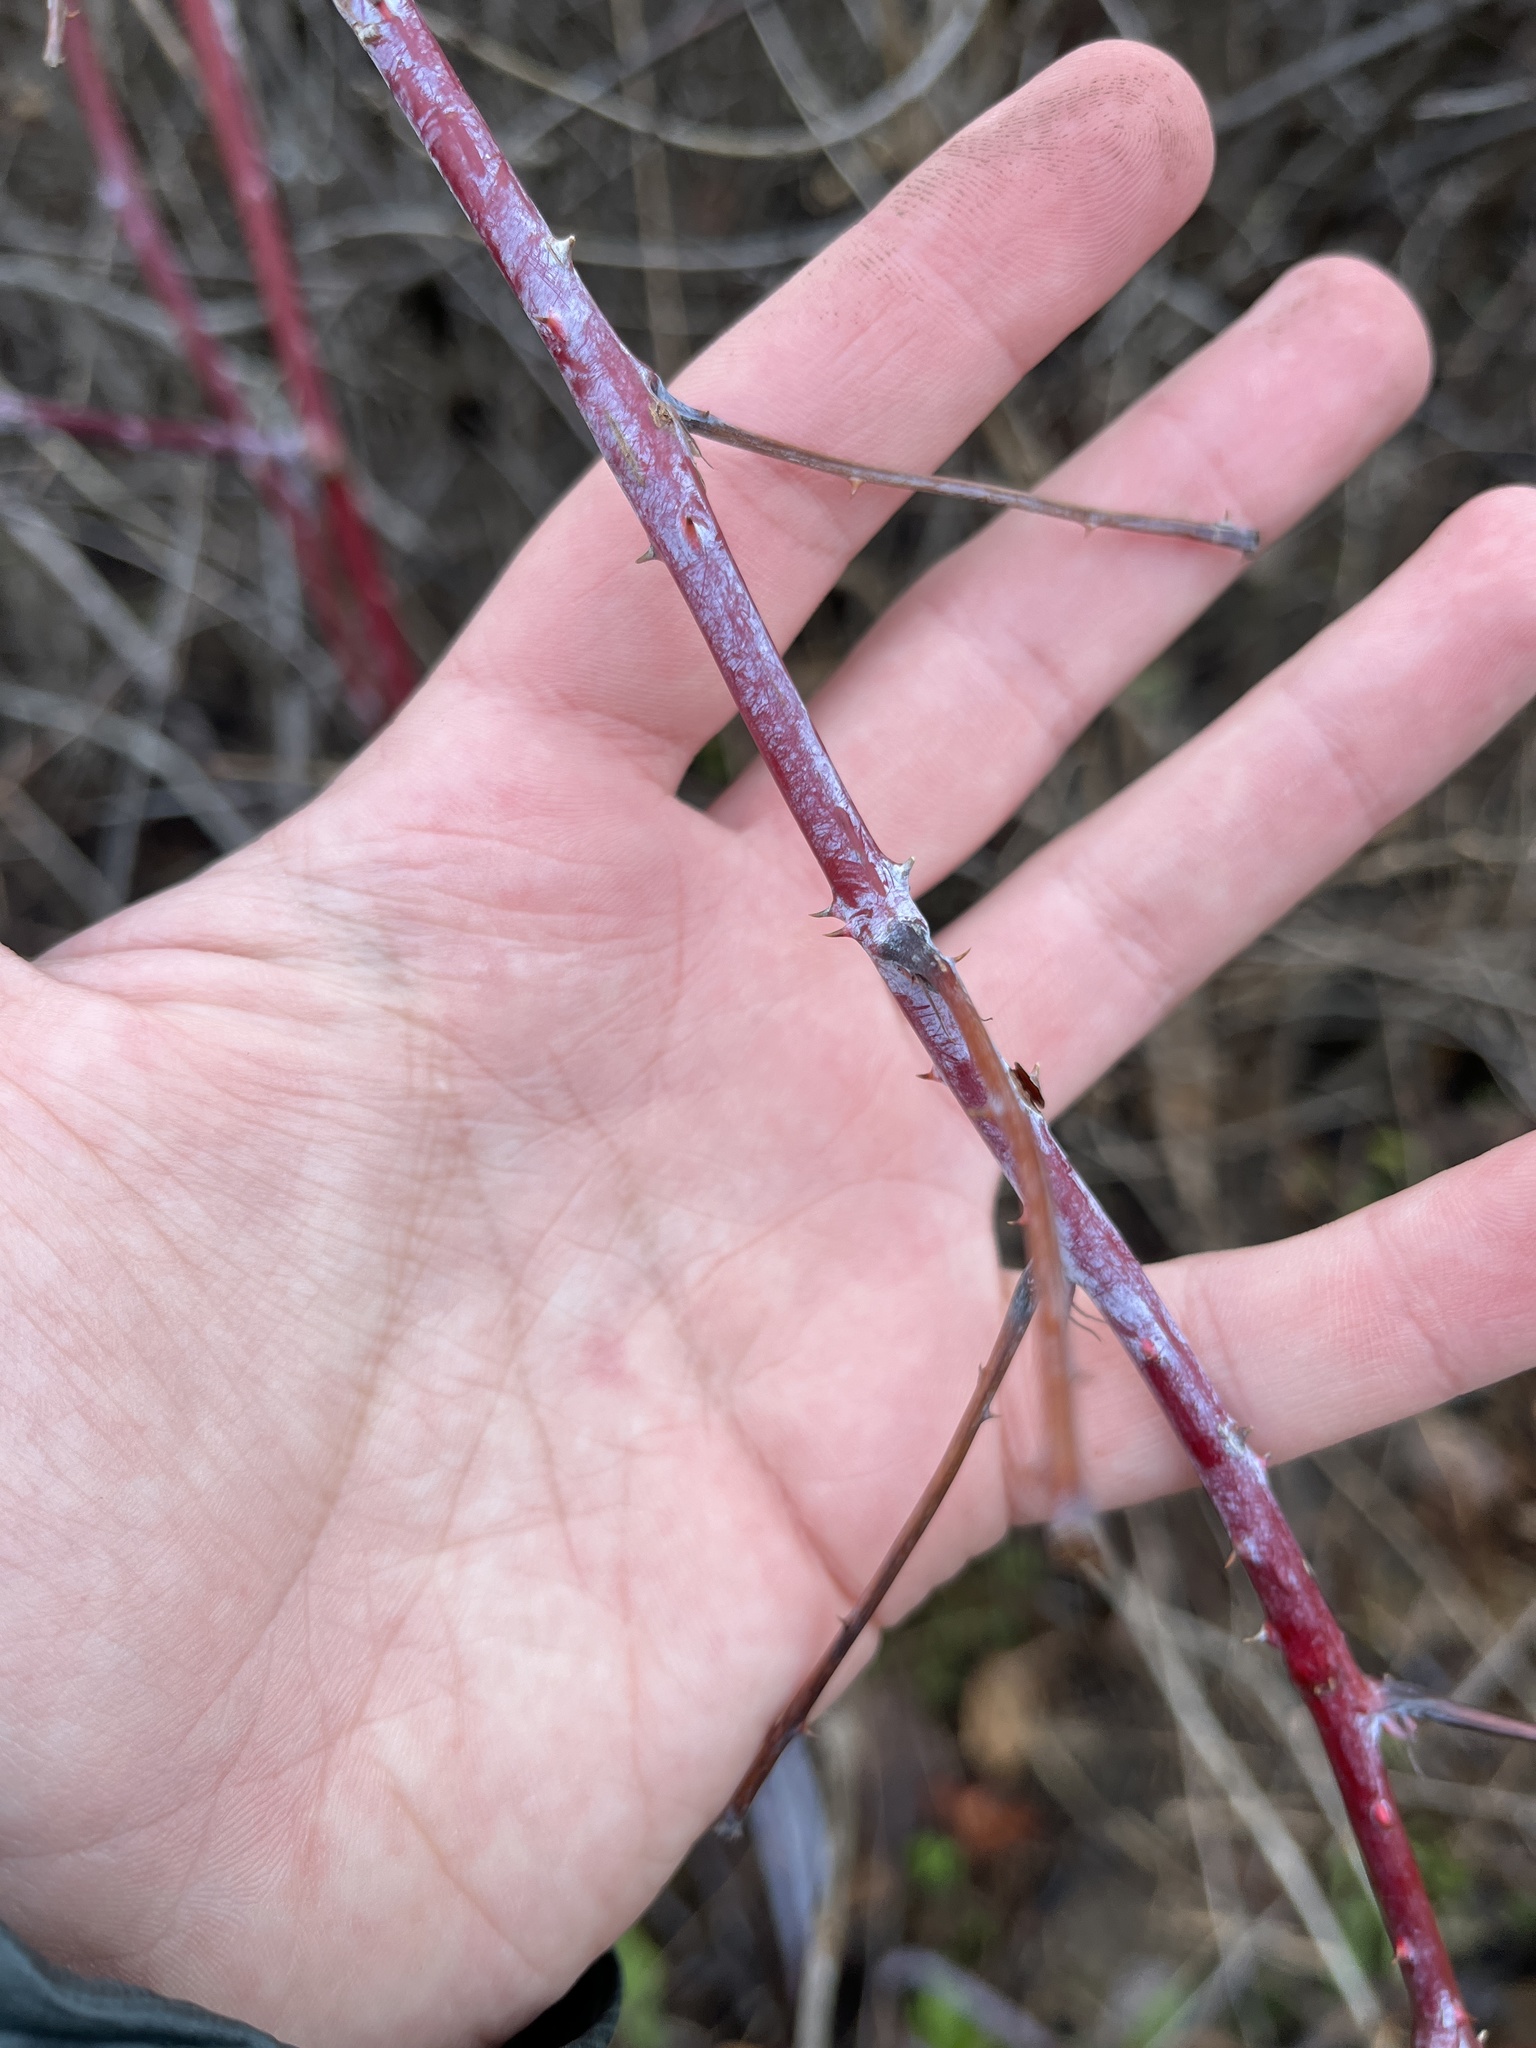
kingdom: Plantae
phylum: Tracheophyta
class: Magnoliopsida
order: Rosales
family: Rosaceae
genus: Rubus
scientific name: Rubus occidentalis
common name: Black raspberry
